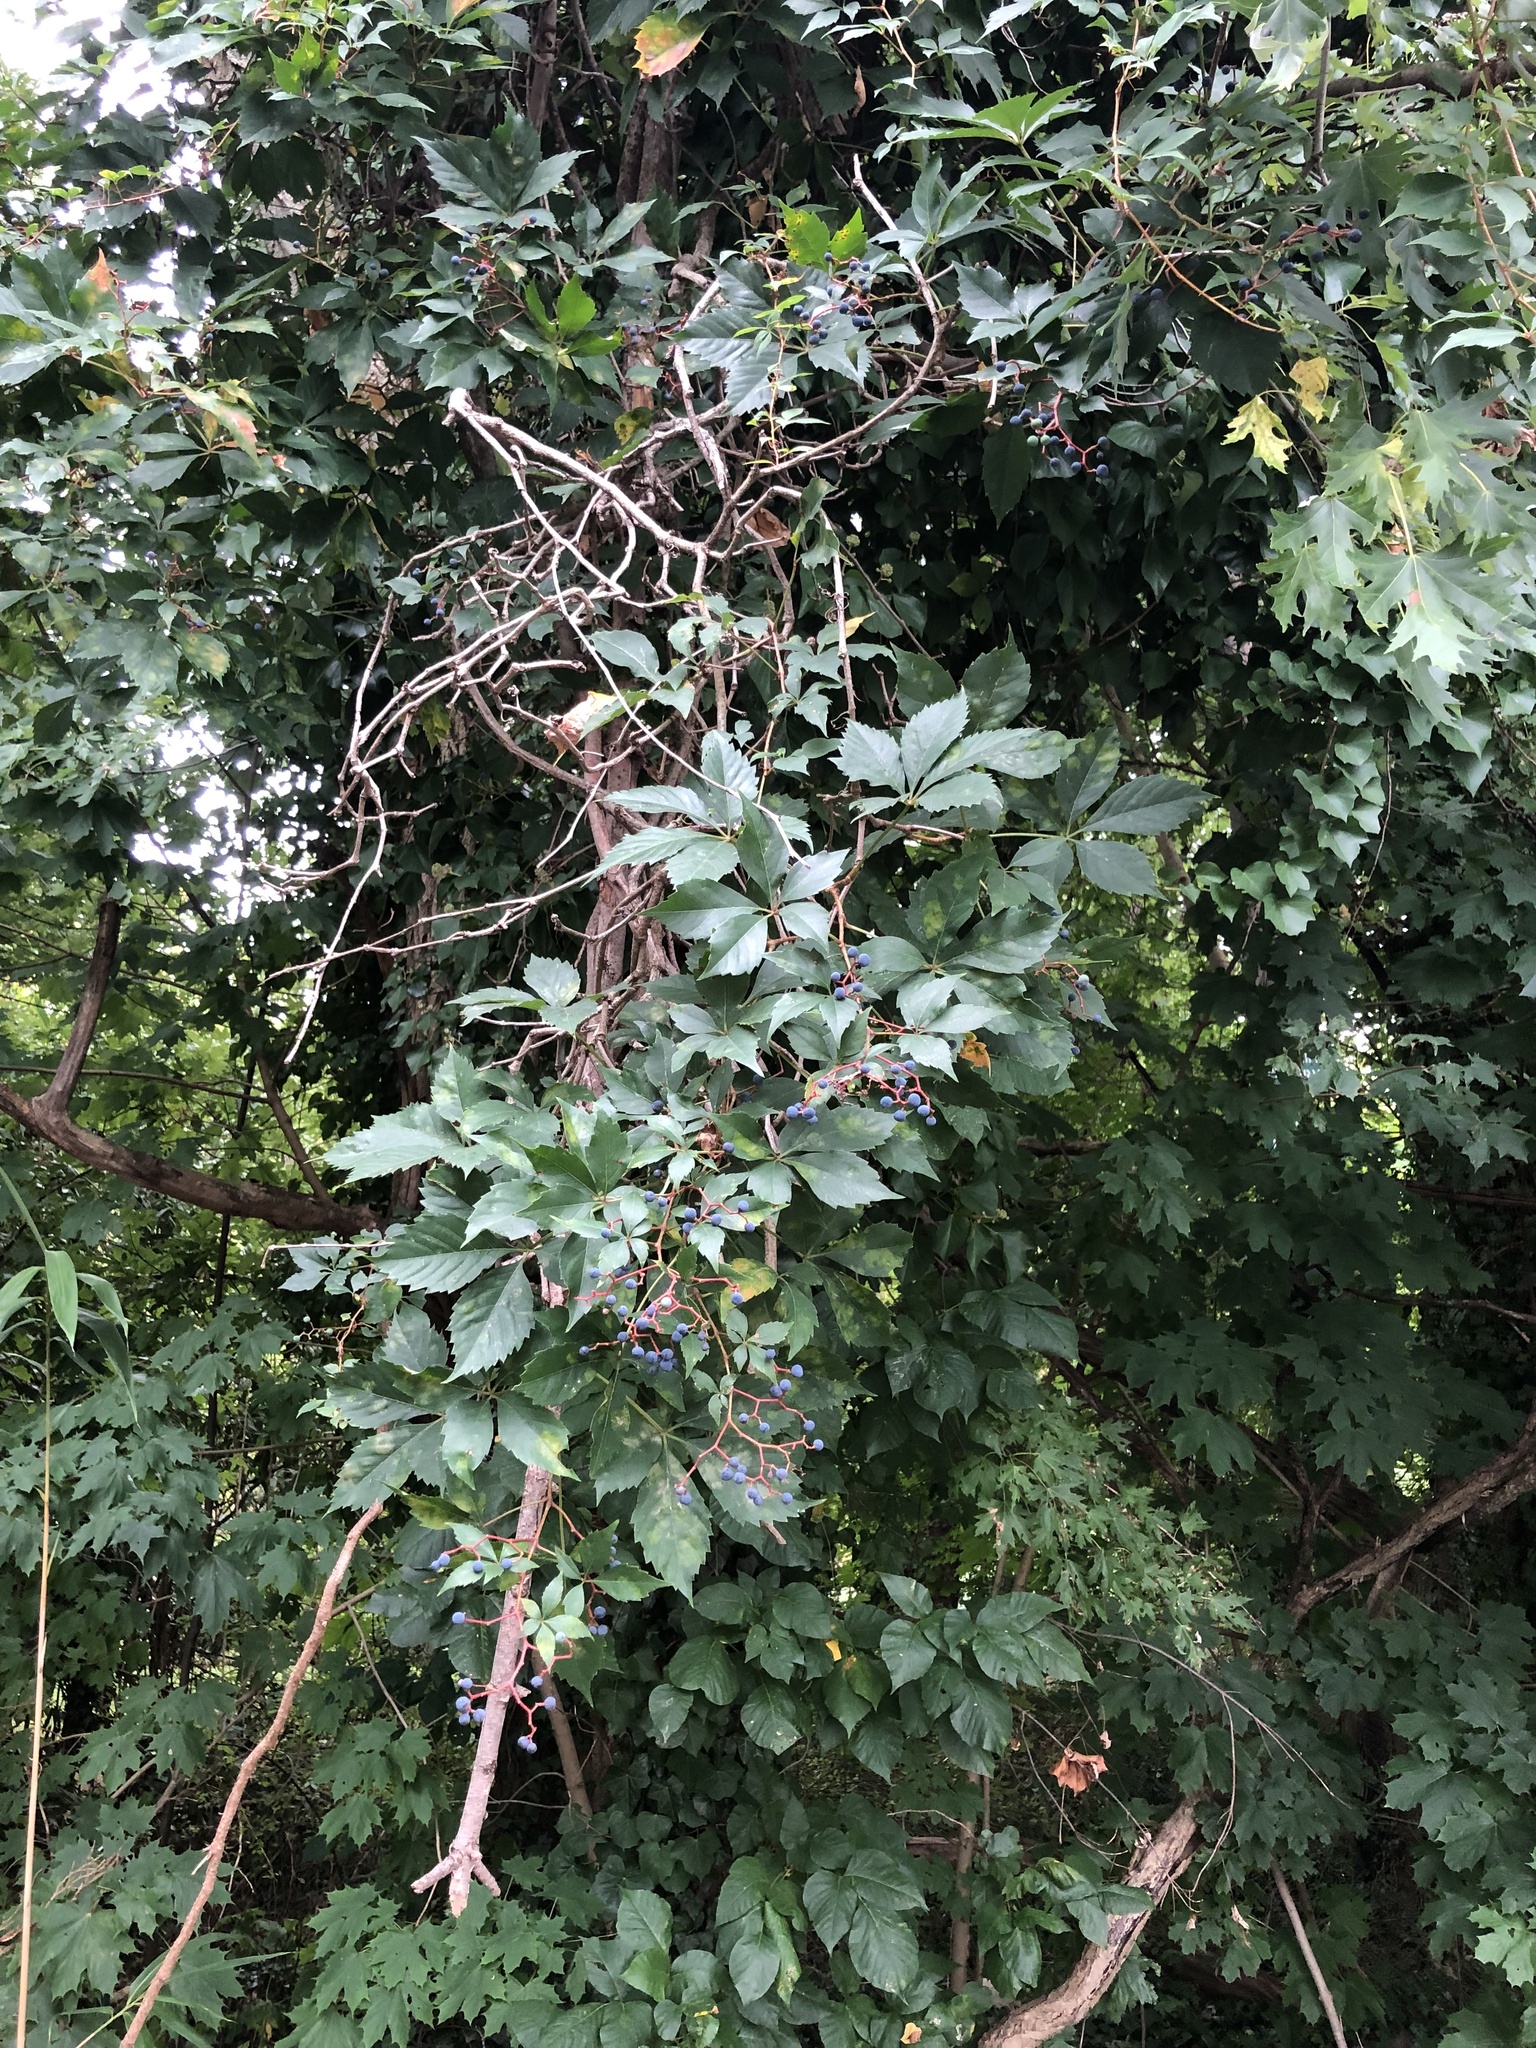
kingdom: Plantae
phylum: Tracheophyta
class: Magnoliopsida
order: Vitales
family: Vitaceae
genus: Parthenocissus
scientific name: Parthenocissus quinquefolia
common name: Virginia-creeper
